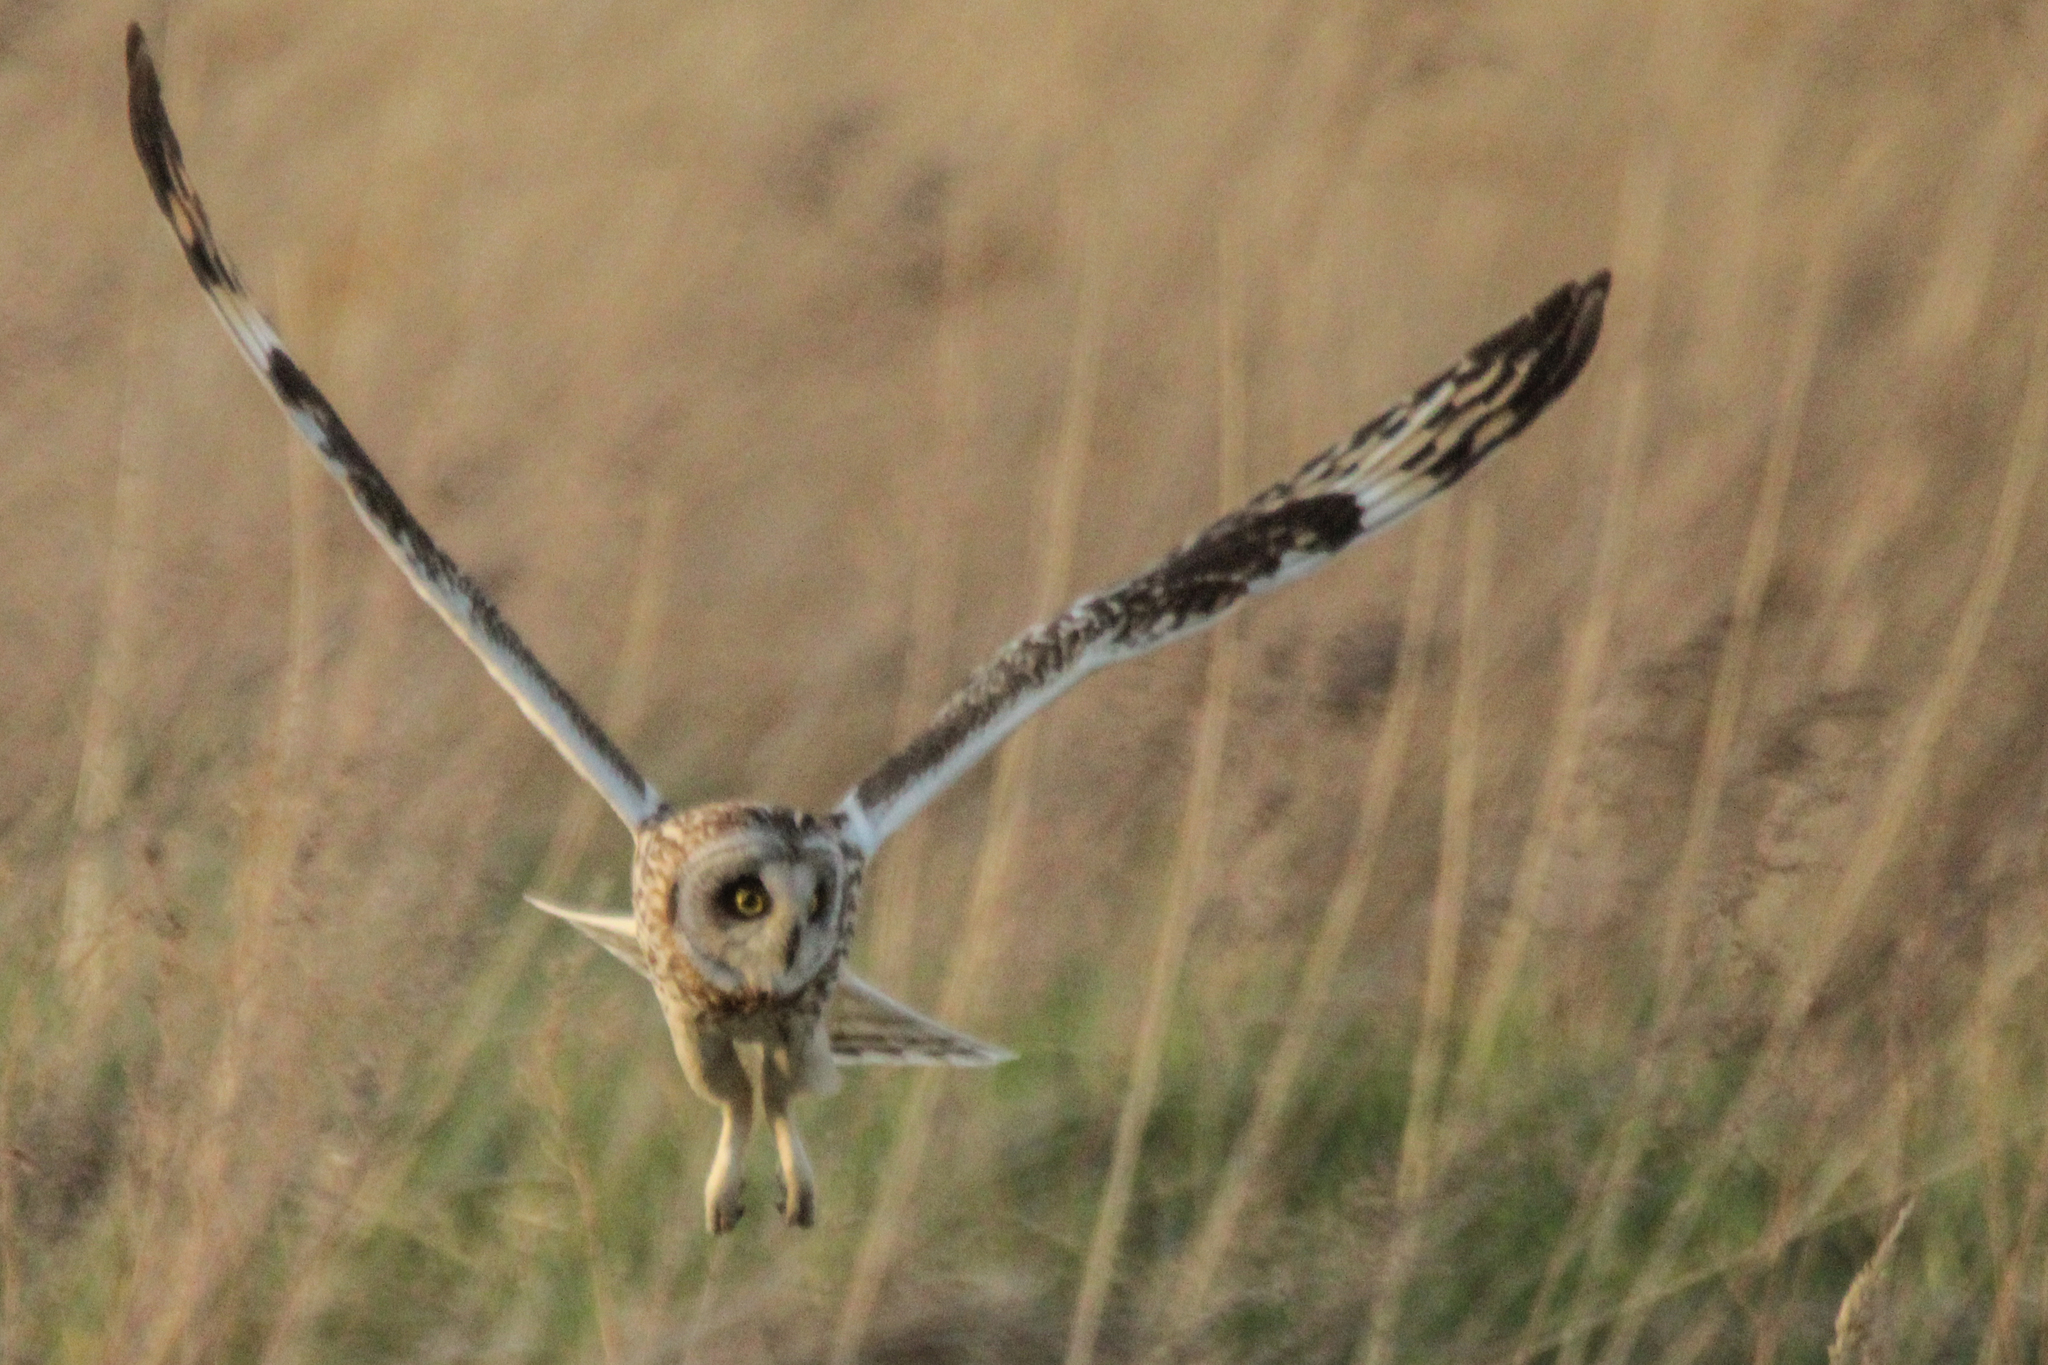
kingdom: Animalia
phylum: Chordata
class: Aves
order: Strigiformes
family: Strigidae
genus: Asio
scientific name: Asio flammeus
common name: Short-eared owl
